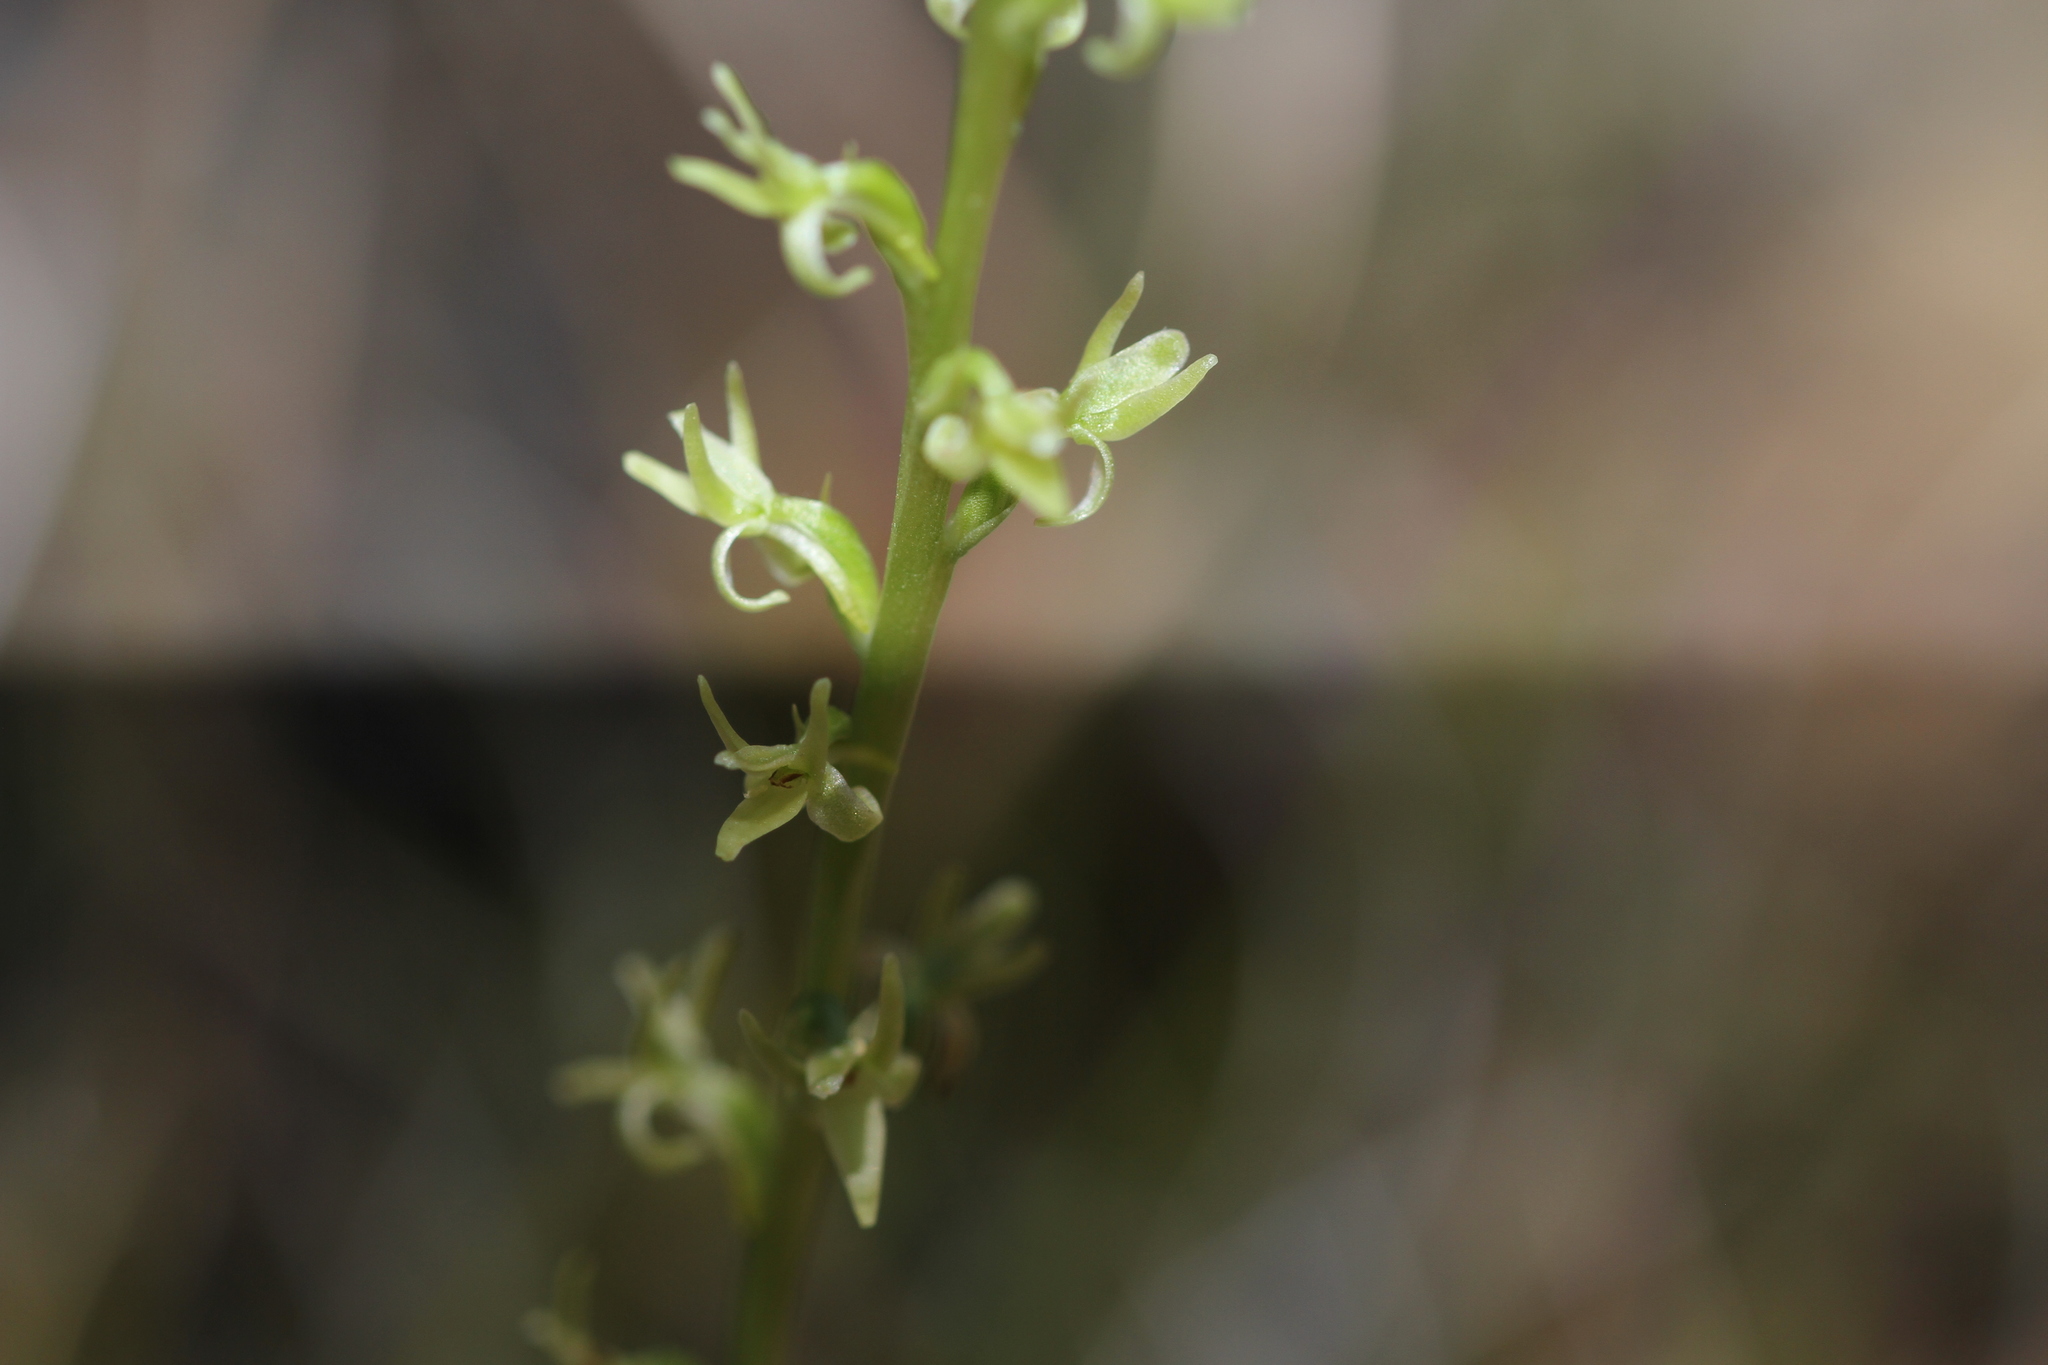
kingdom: Plantae
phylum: Tracheophyta
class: Liliopsida
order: Asparagales
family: Orchidaceae
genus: Platanthera
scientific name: Platanthera leptopetala
